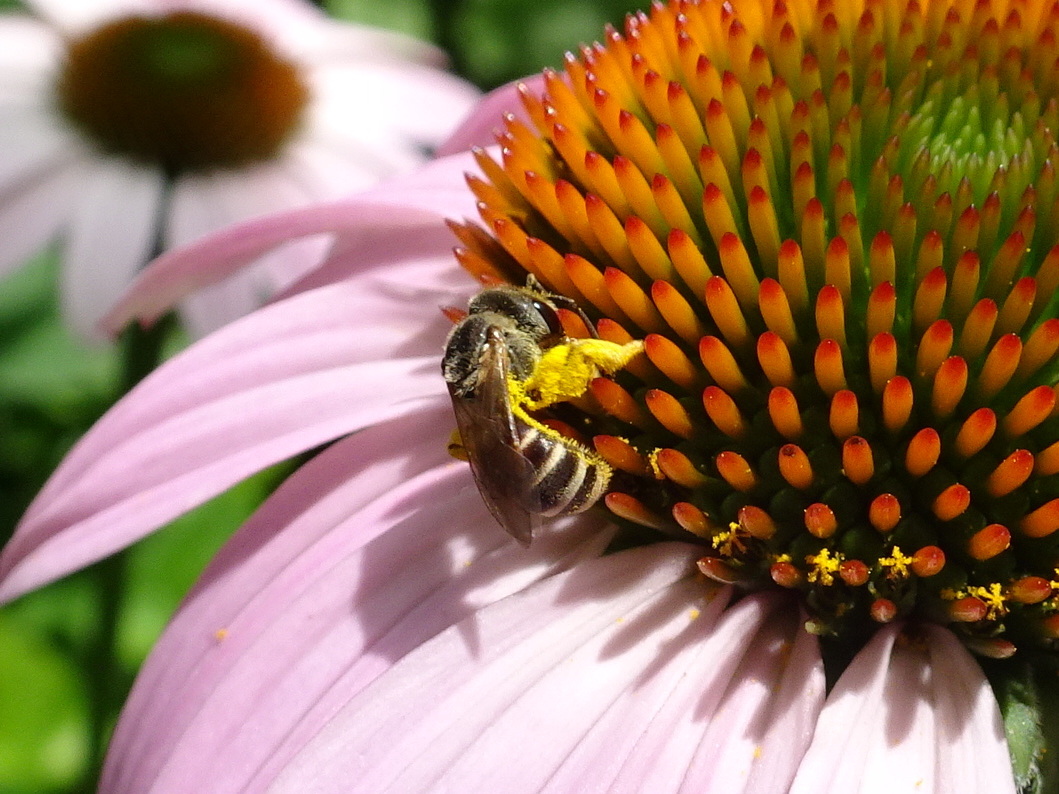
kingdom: Animalia
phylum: Arthropoda
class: Insecta
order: Hymenoptera
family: Halictidae
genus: Halictus
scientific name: Halictus ligatus
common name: Ligated furrow bee
